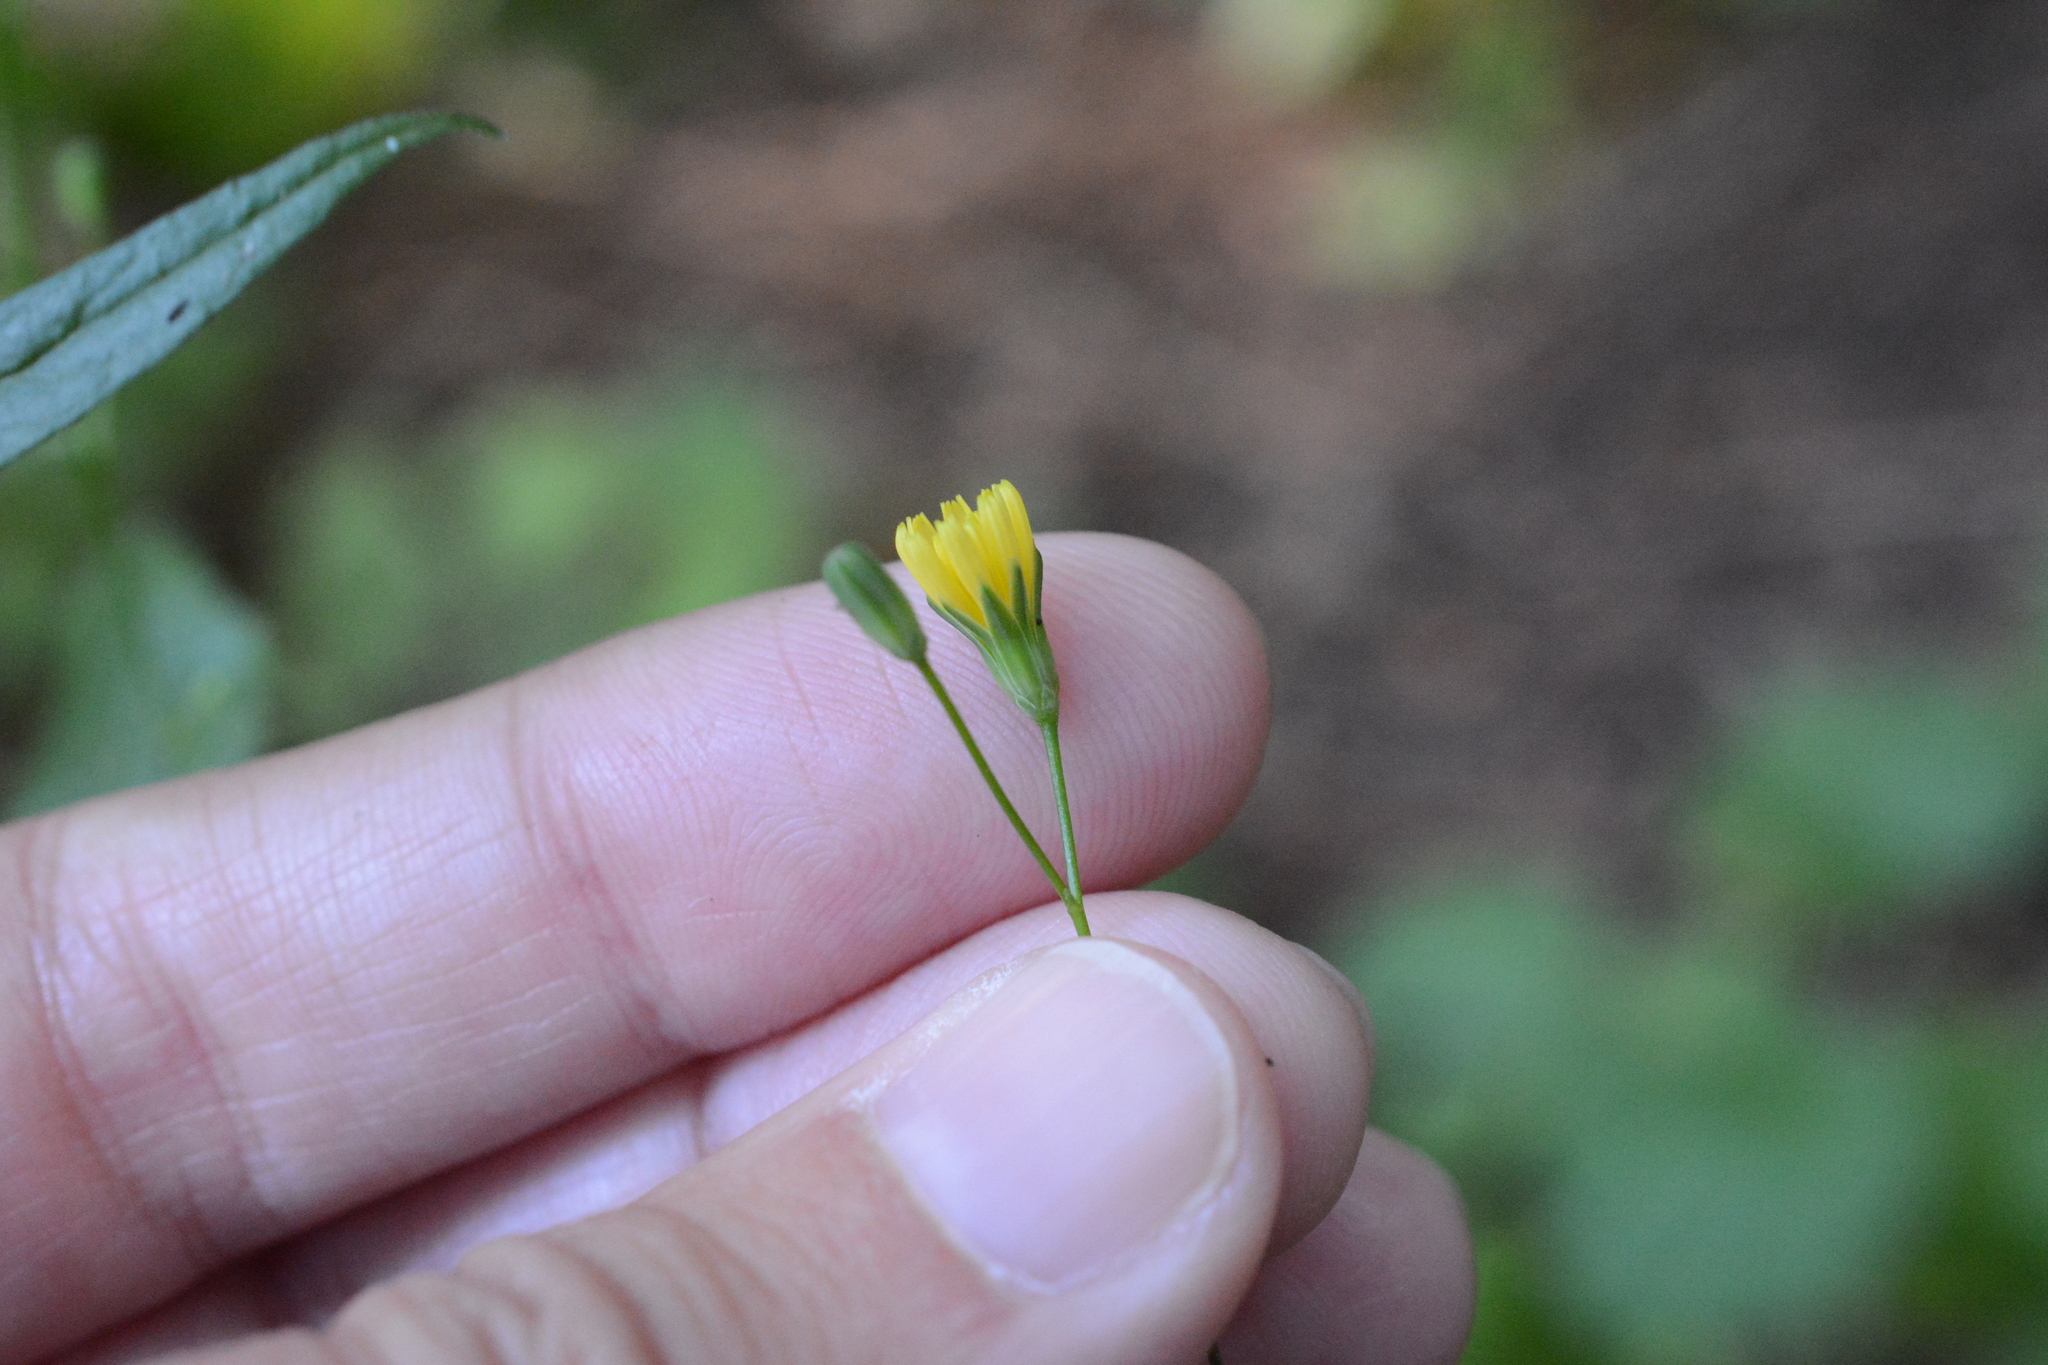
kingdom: Plantae
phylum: Tracheophyta
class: Magnoliopsida
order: Asterales
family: Asteraceae
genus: Lapsana
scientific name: Lapsana communis
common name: Nipplewort
